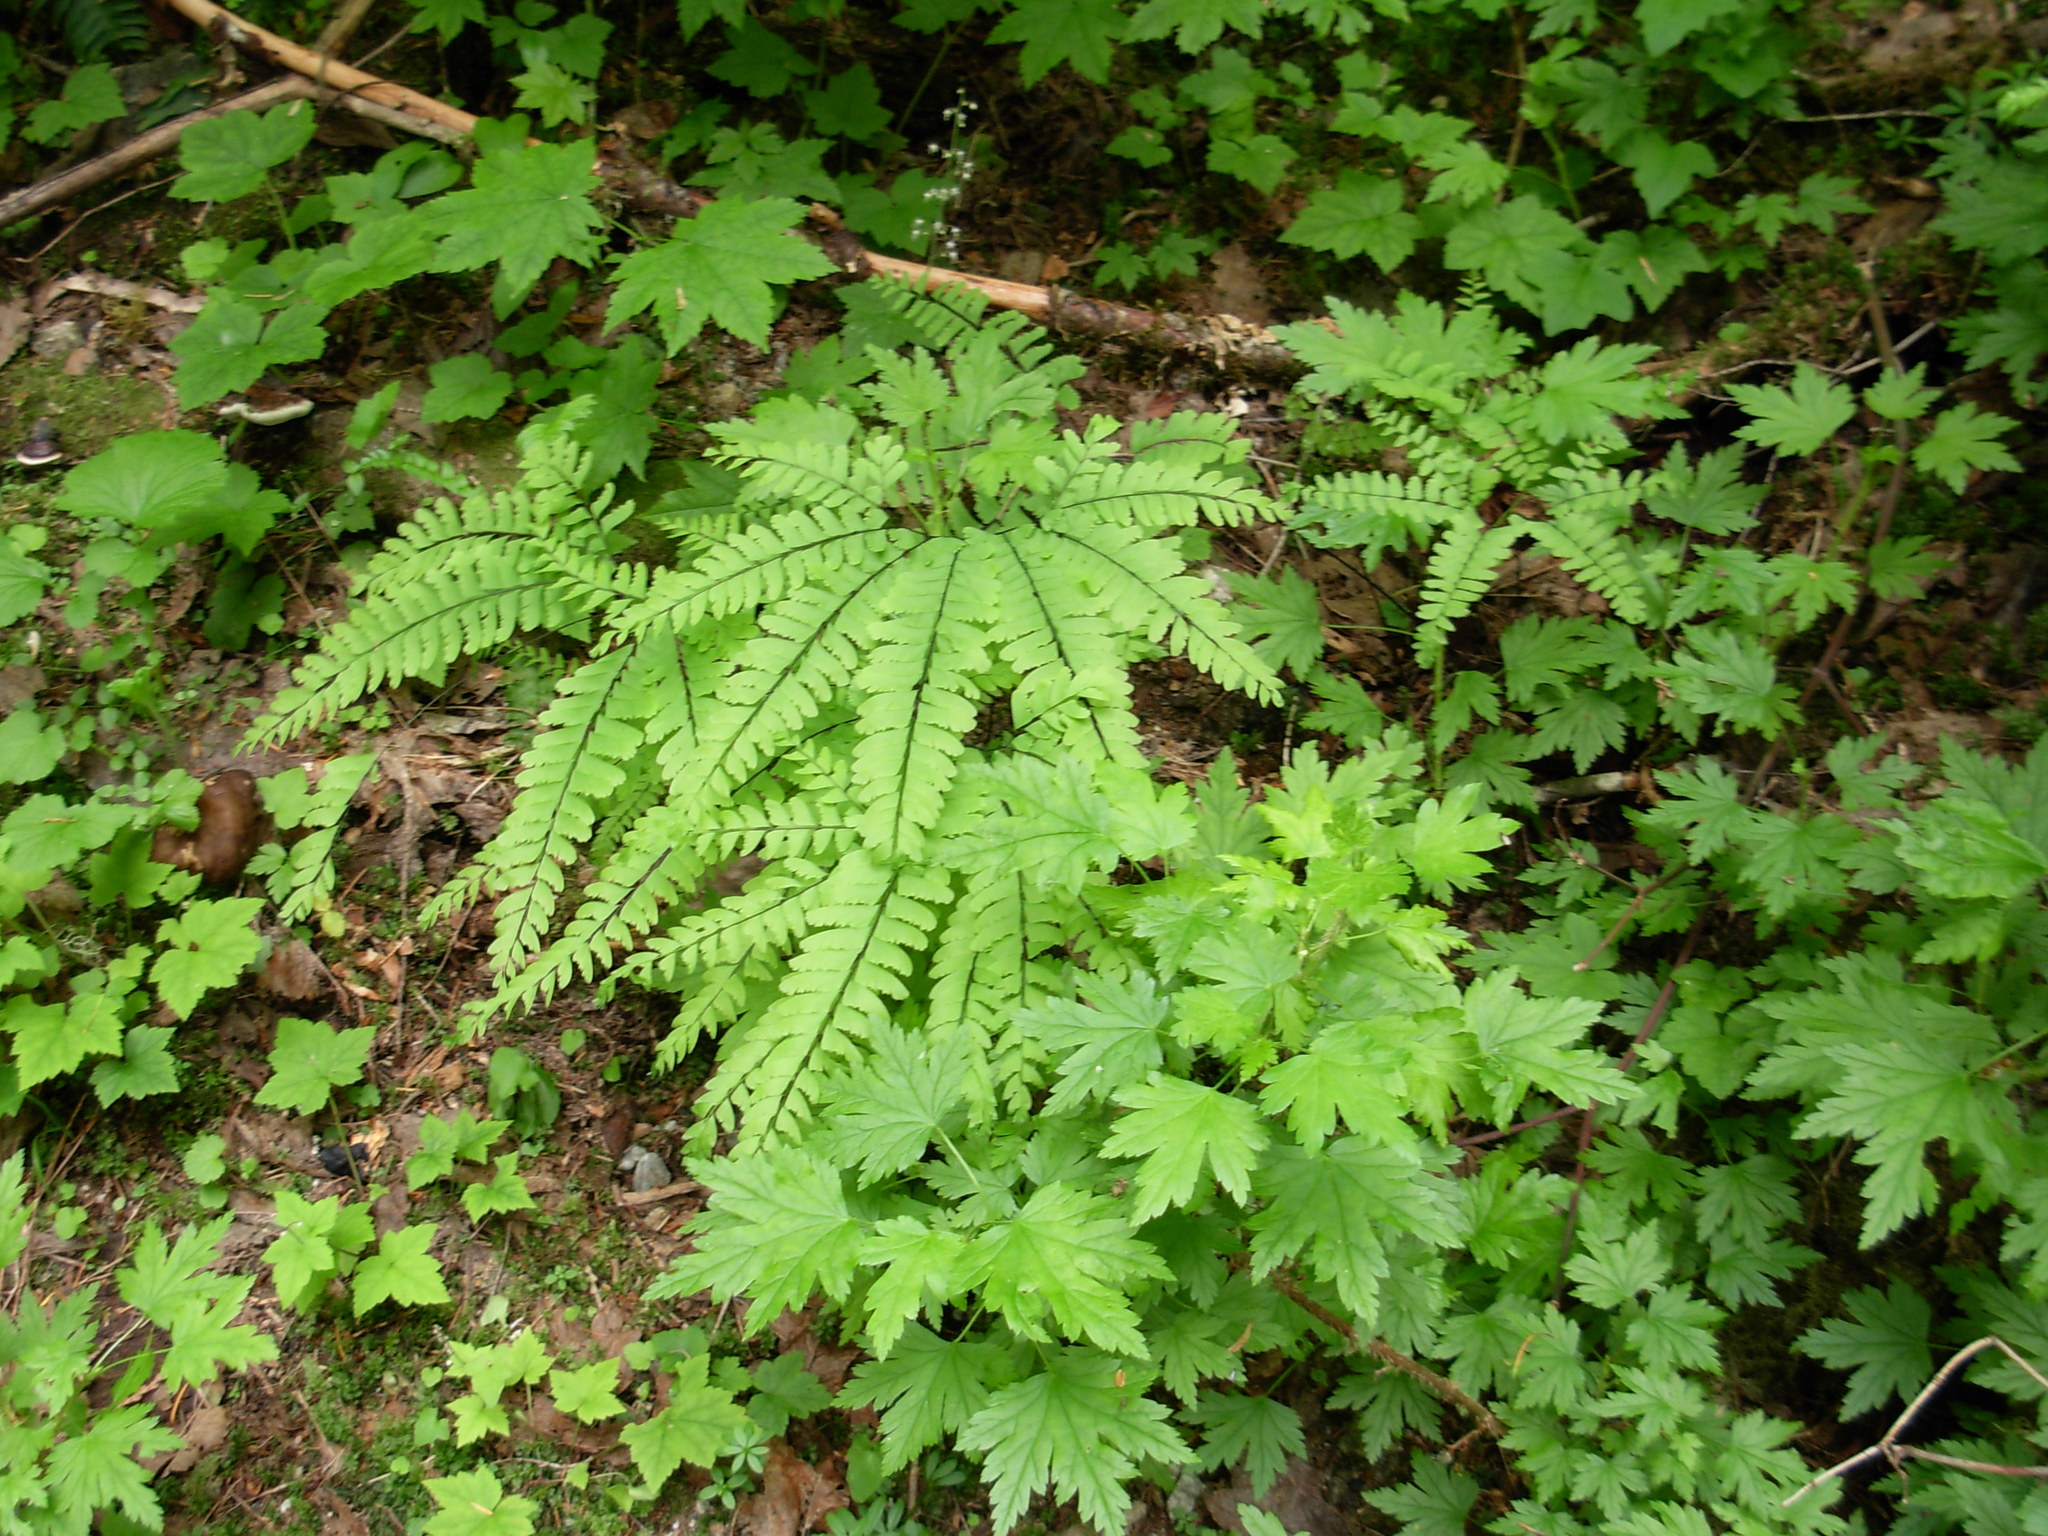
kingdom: Plantae
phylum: Tracheophyta
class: Polypodiopsida
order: Polypodiales
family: Pteridaceae
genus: Adiantum
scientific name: Adiantum aleuticum
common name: Aleutian maidenhair fern
